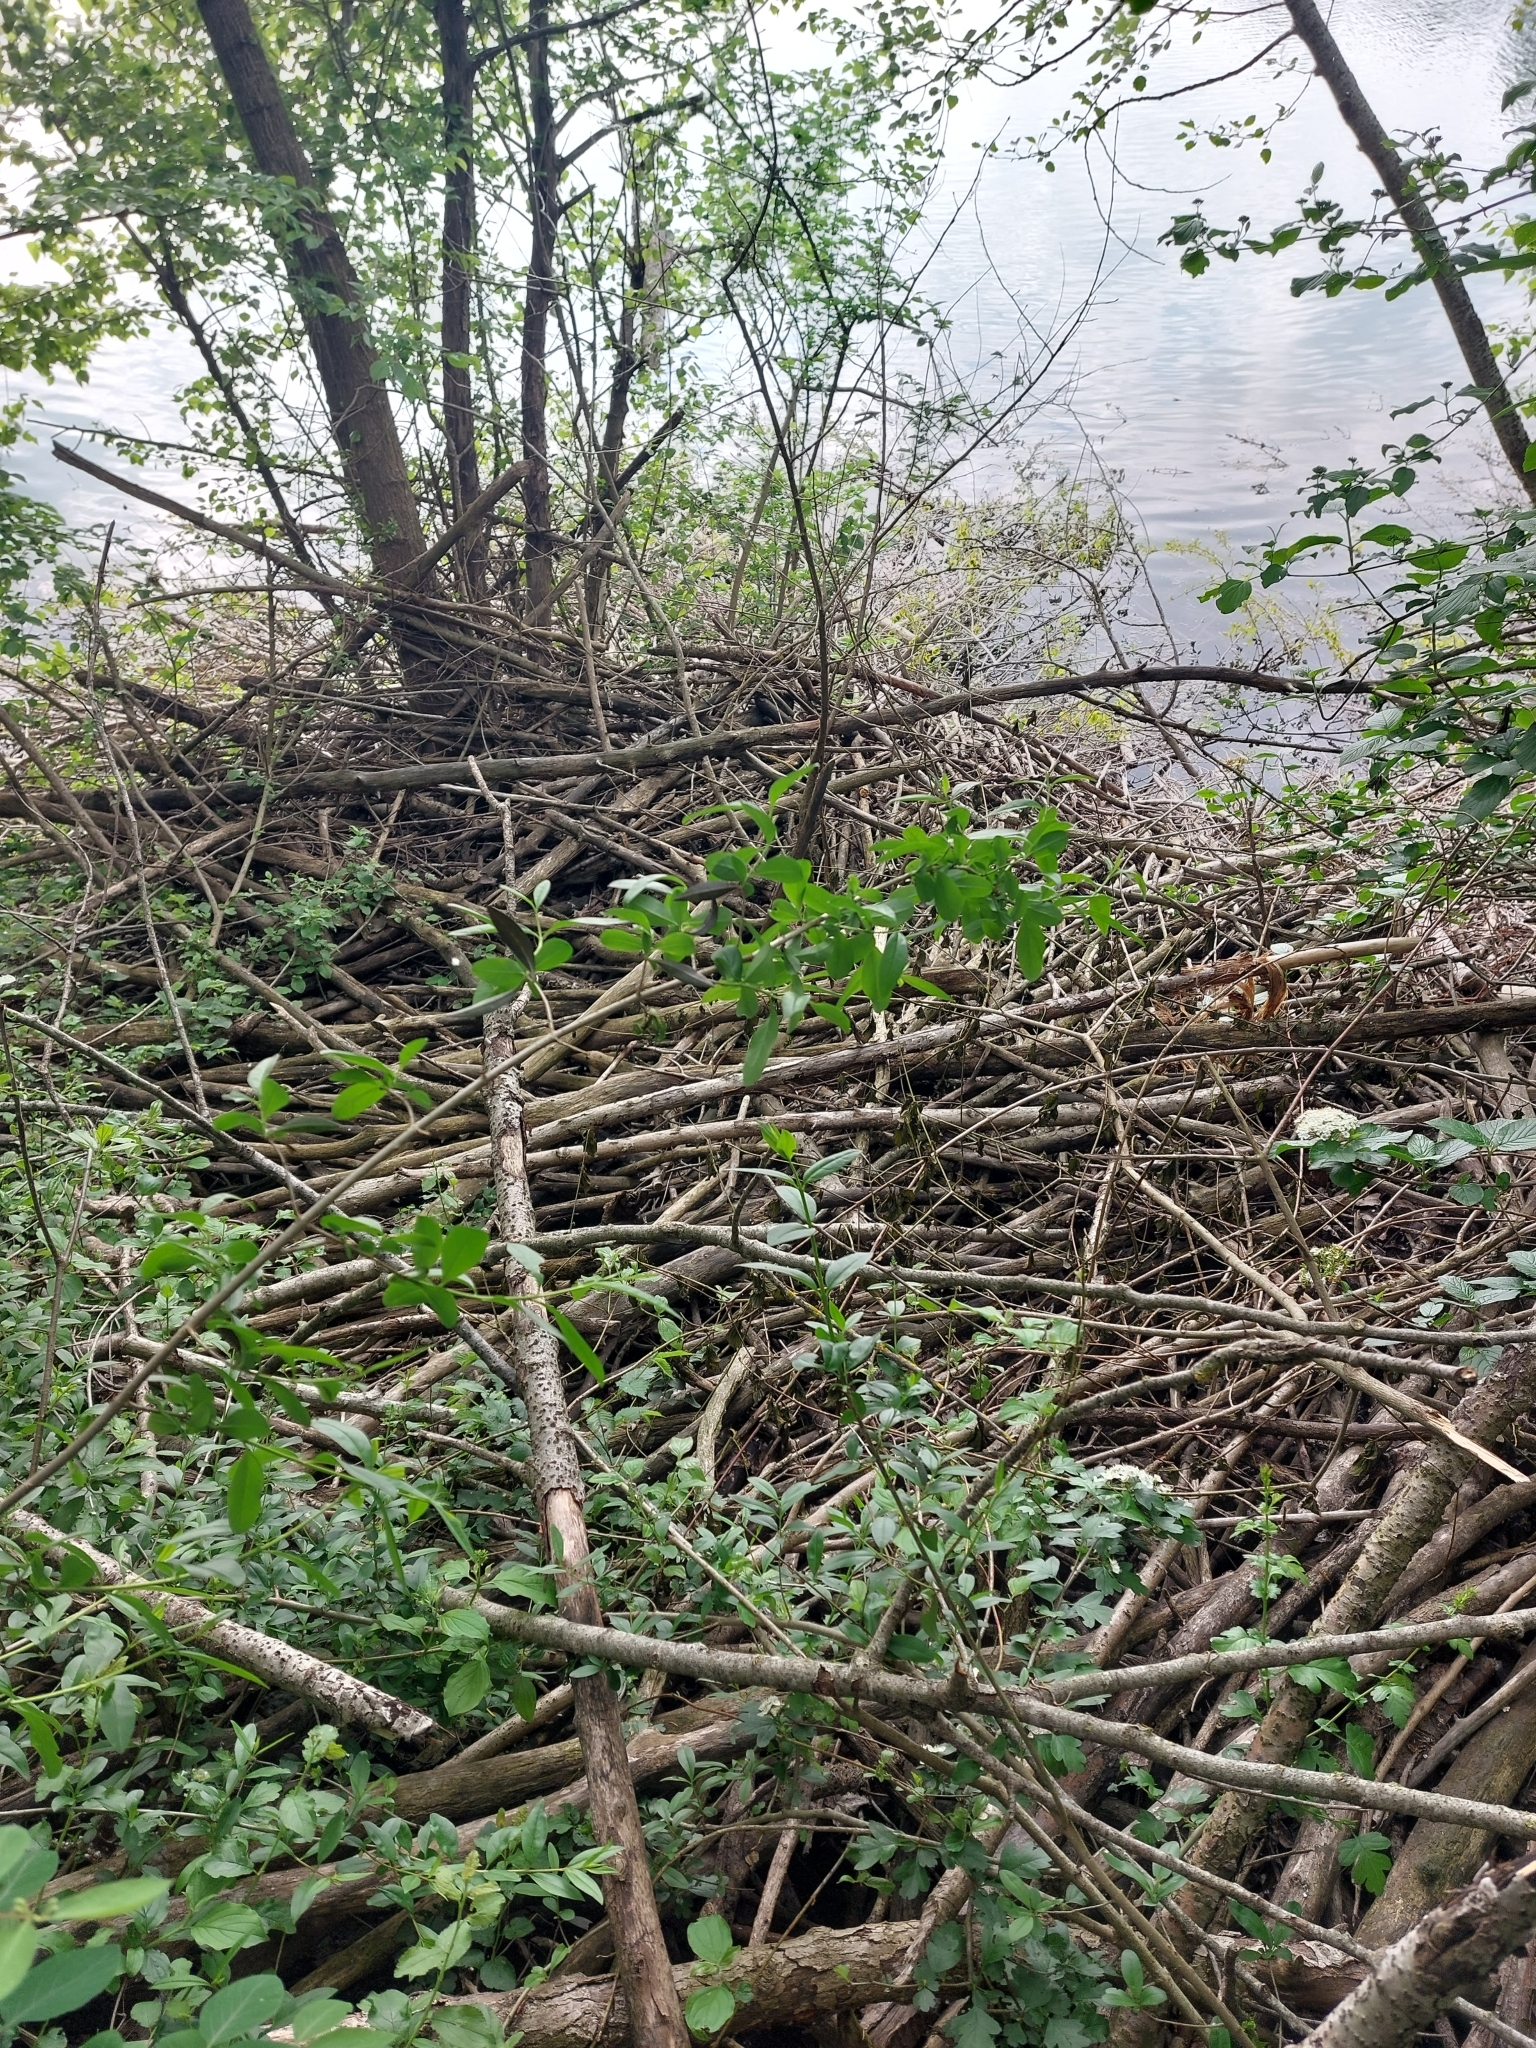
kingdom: Animalia
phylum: Chordata
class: Mammalia
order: Rodentia
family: Castoridae
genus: Castor
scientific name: Castor fiber
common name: Eurasian beaver
